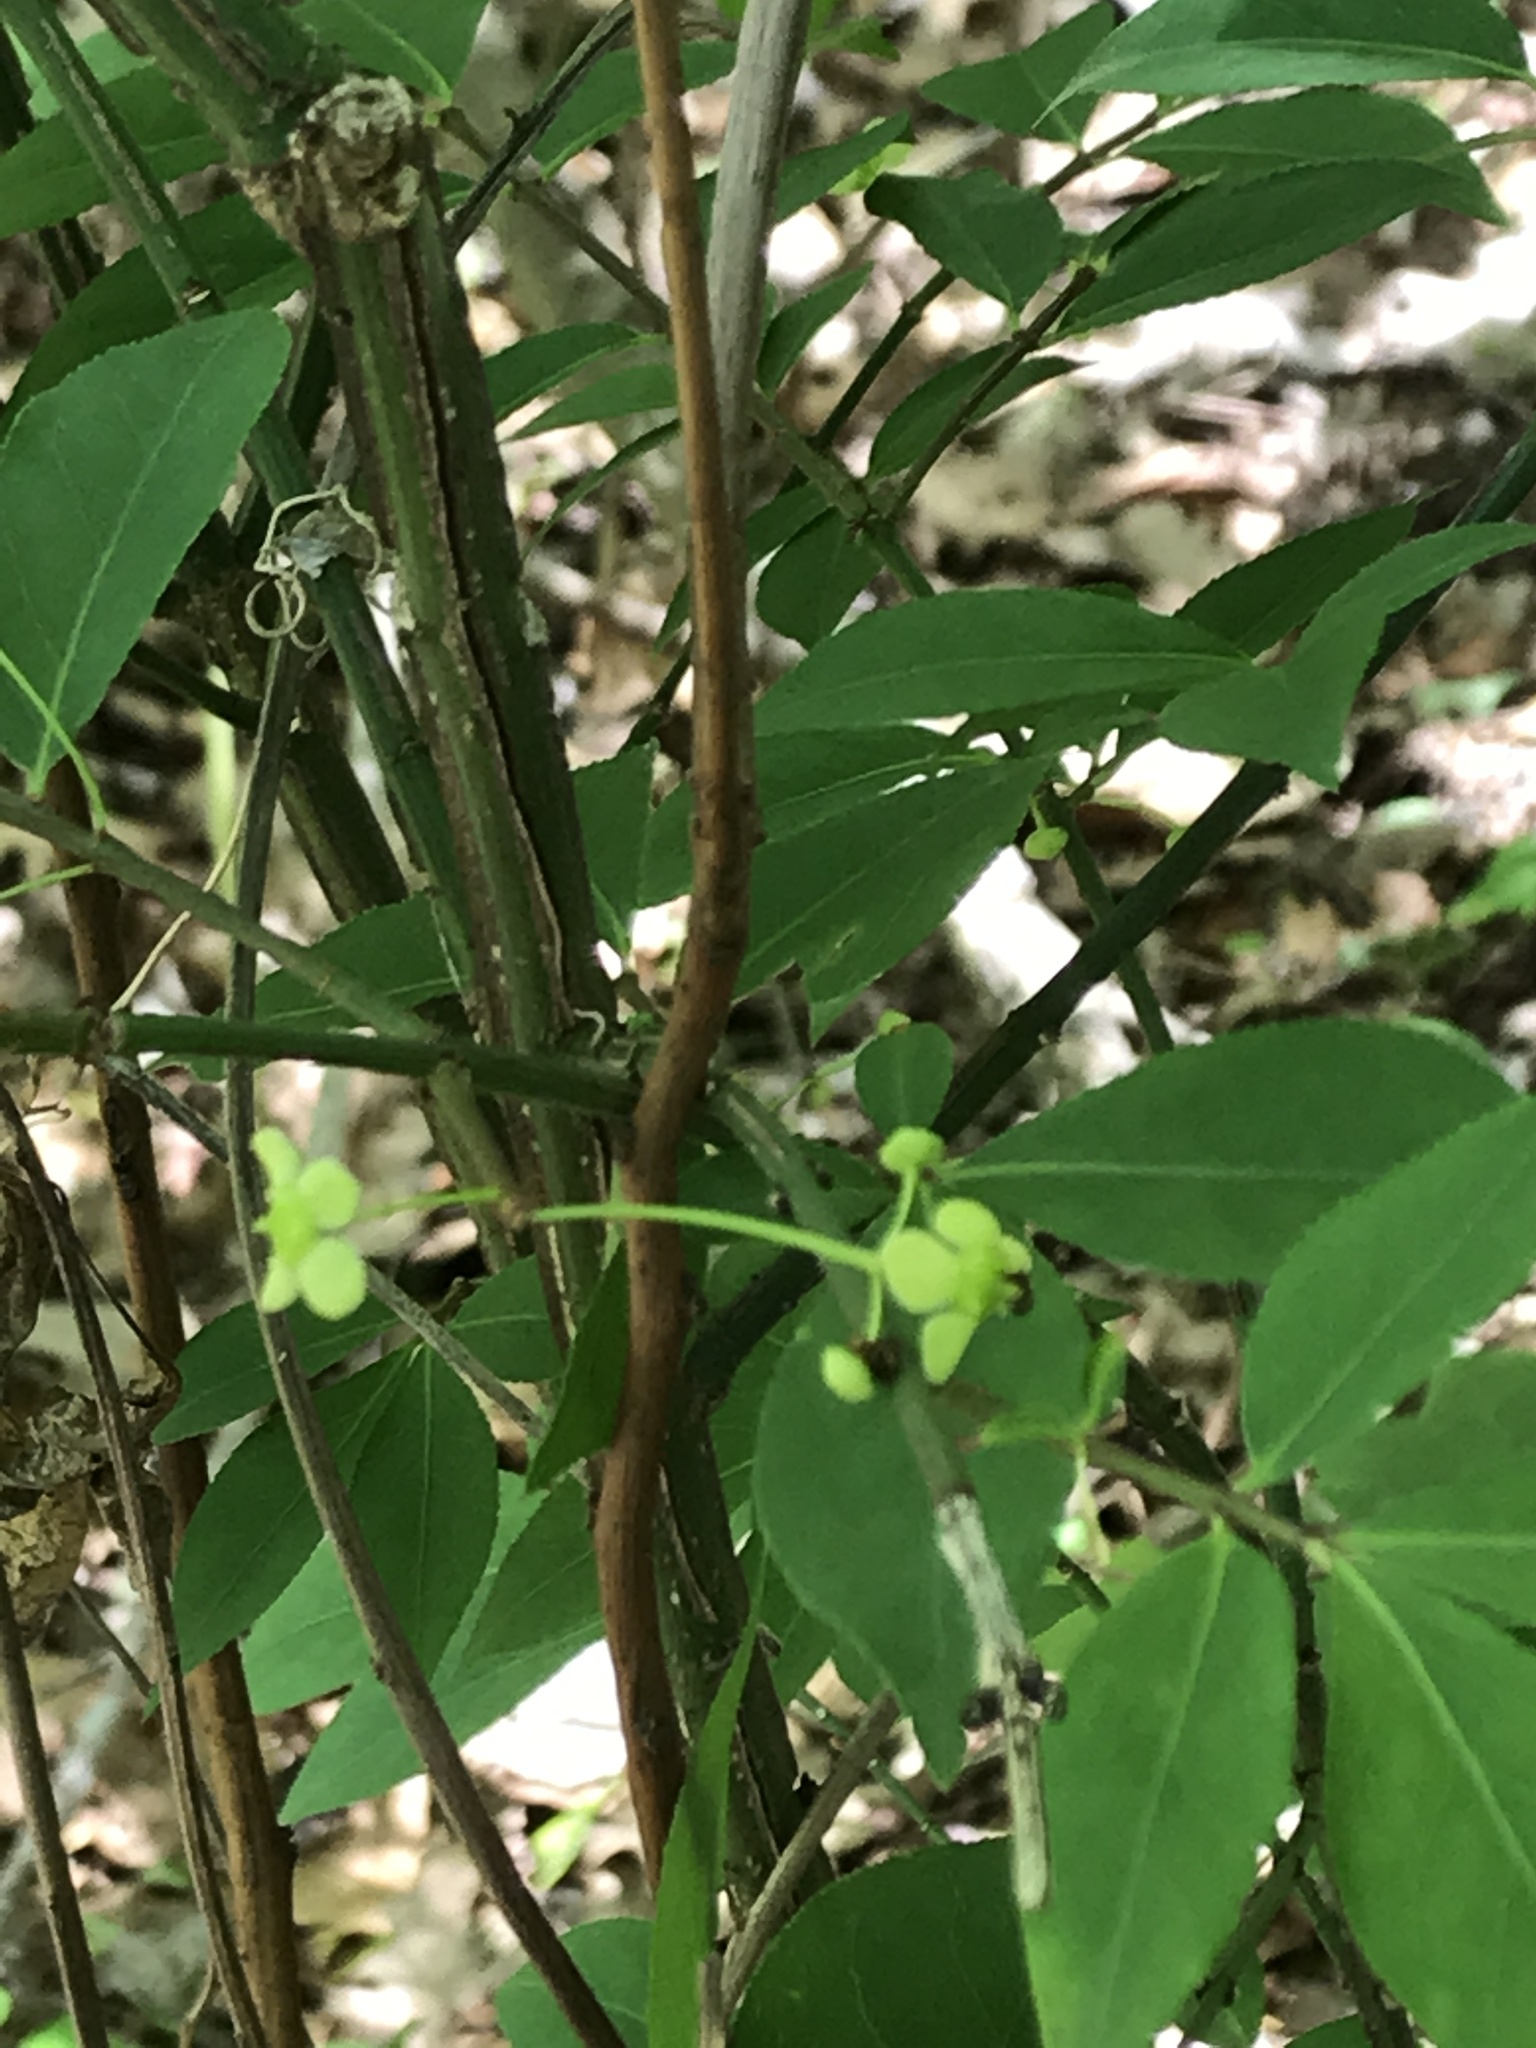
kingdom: Plantae
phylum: Tracheophyta
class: Magnoliopsida
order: Celastrales
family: Celastraceae
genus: Euonymus
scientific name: Euonymus alatus
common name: Winged euonymus
